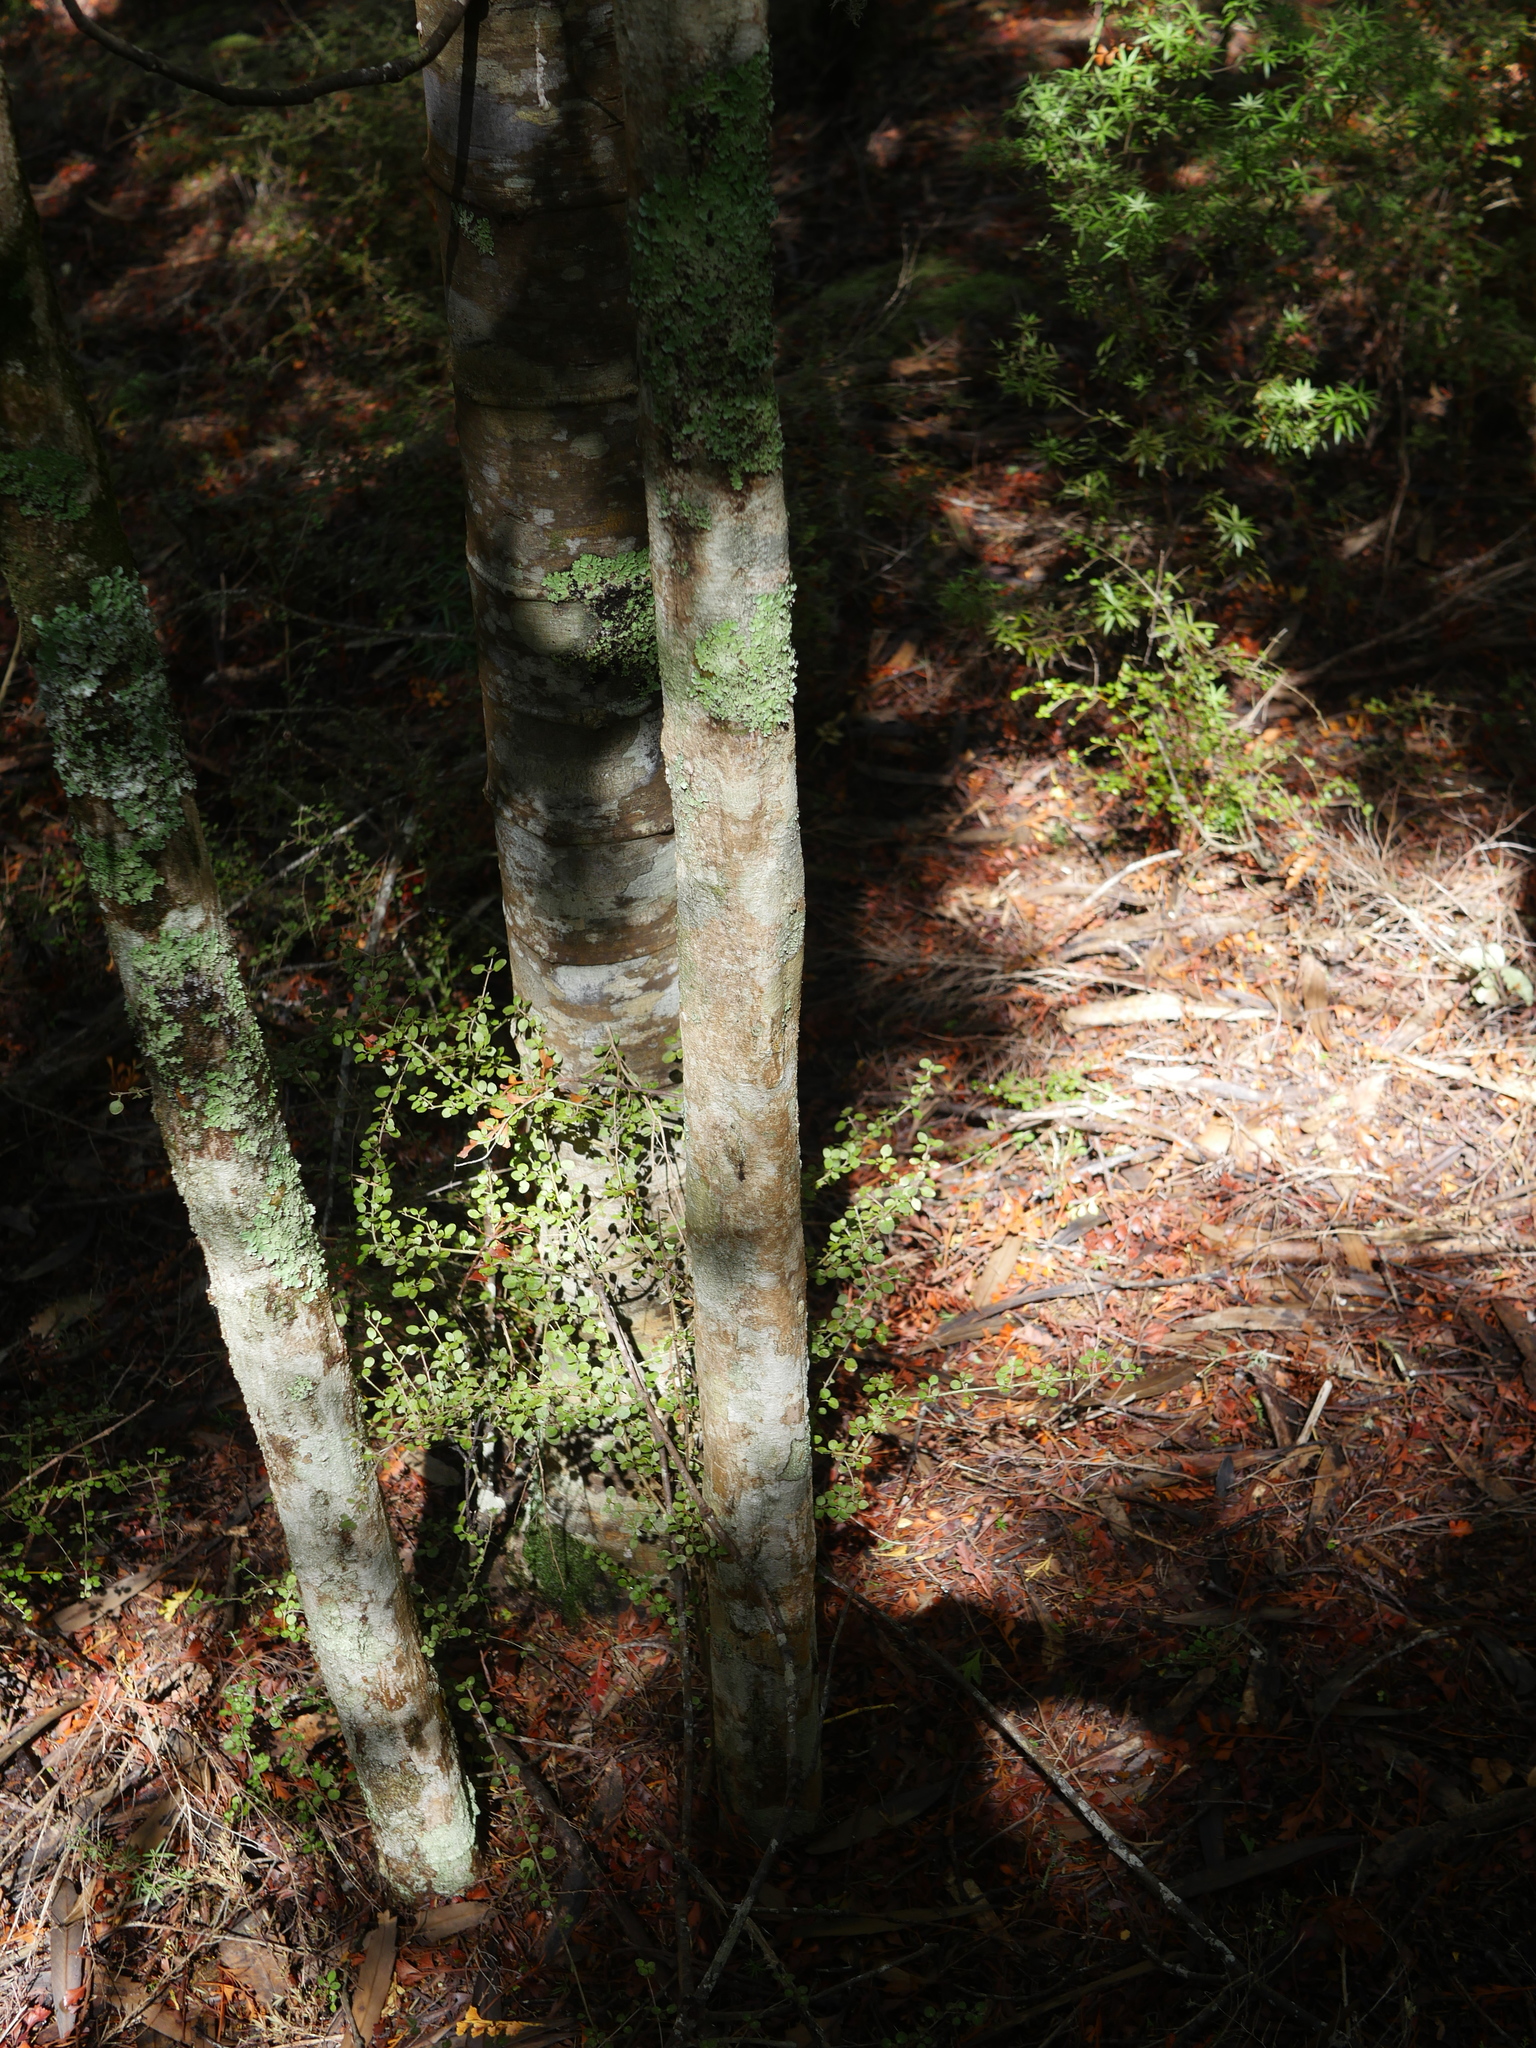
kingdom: Plantae
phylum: Tracheophyta
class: Magnoliopsida
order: Apiales
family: Araliaceae
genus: Pseudopanax
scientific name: Pseudopanax crassifolius
